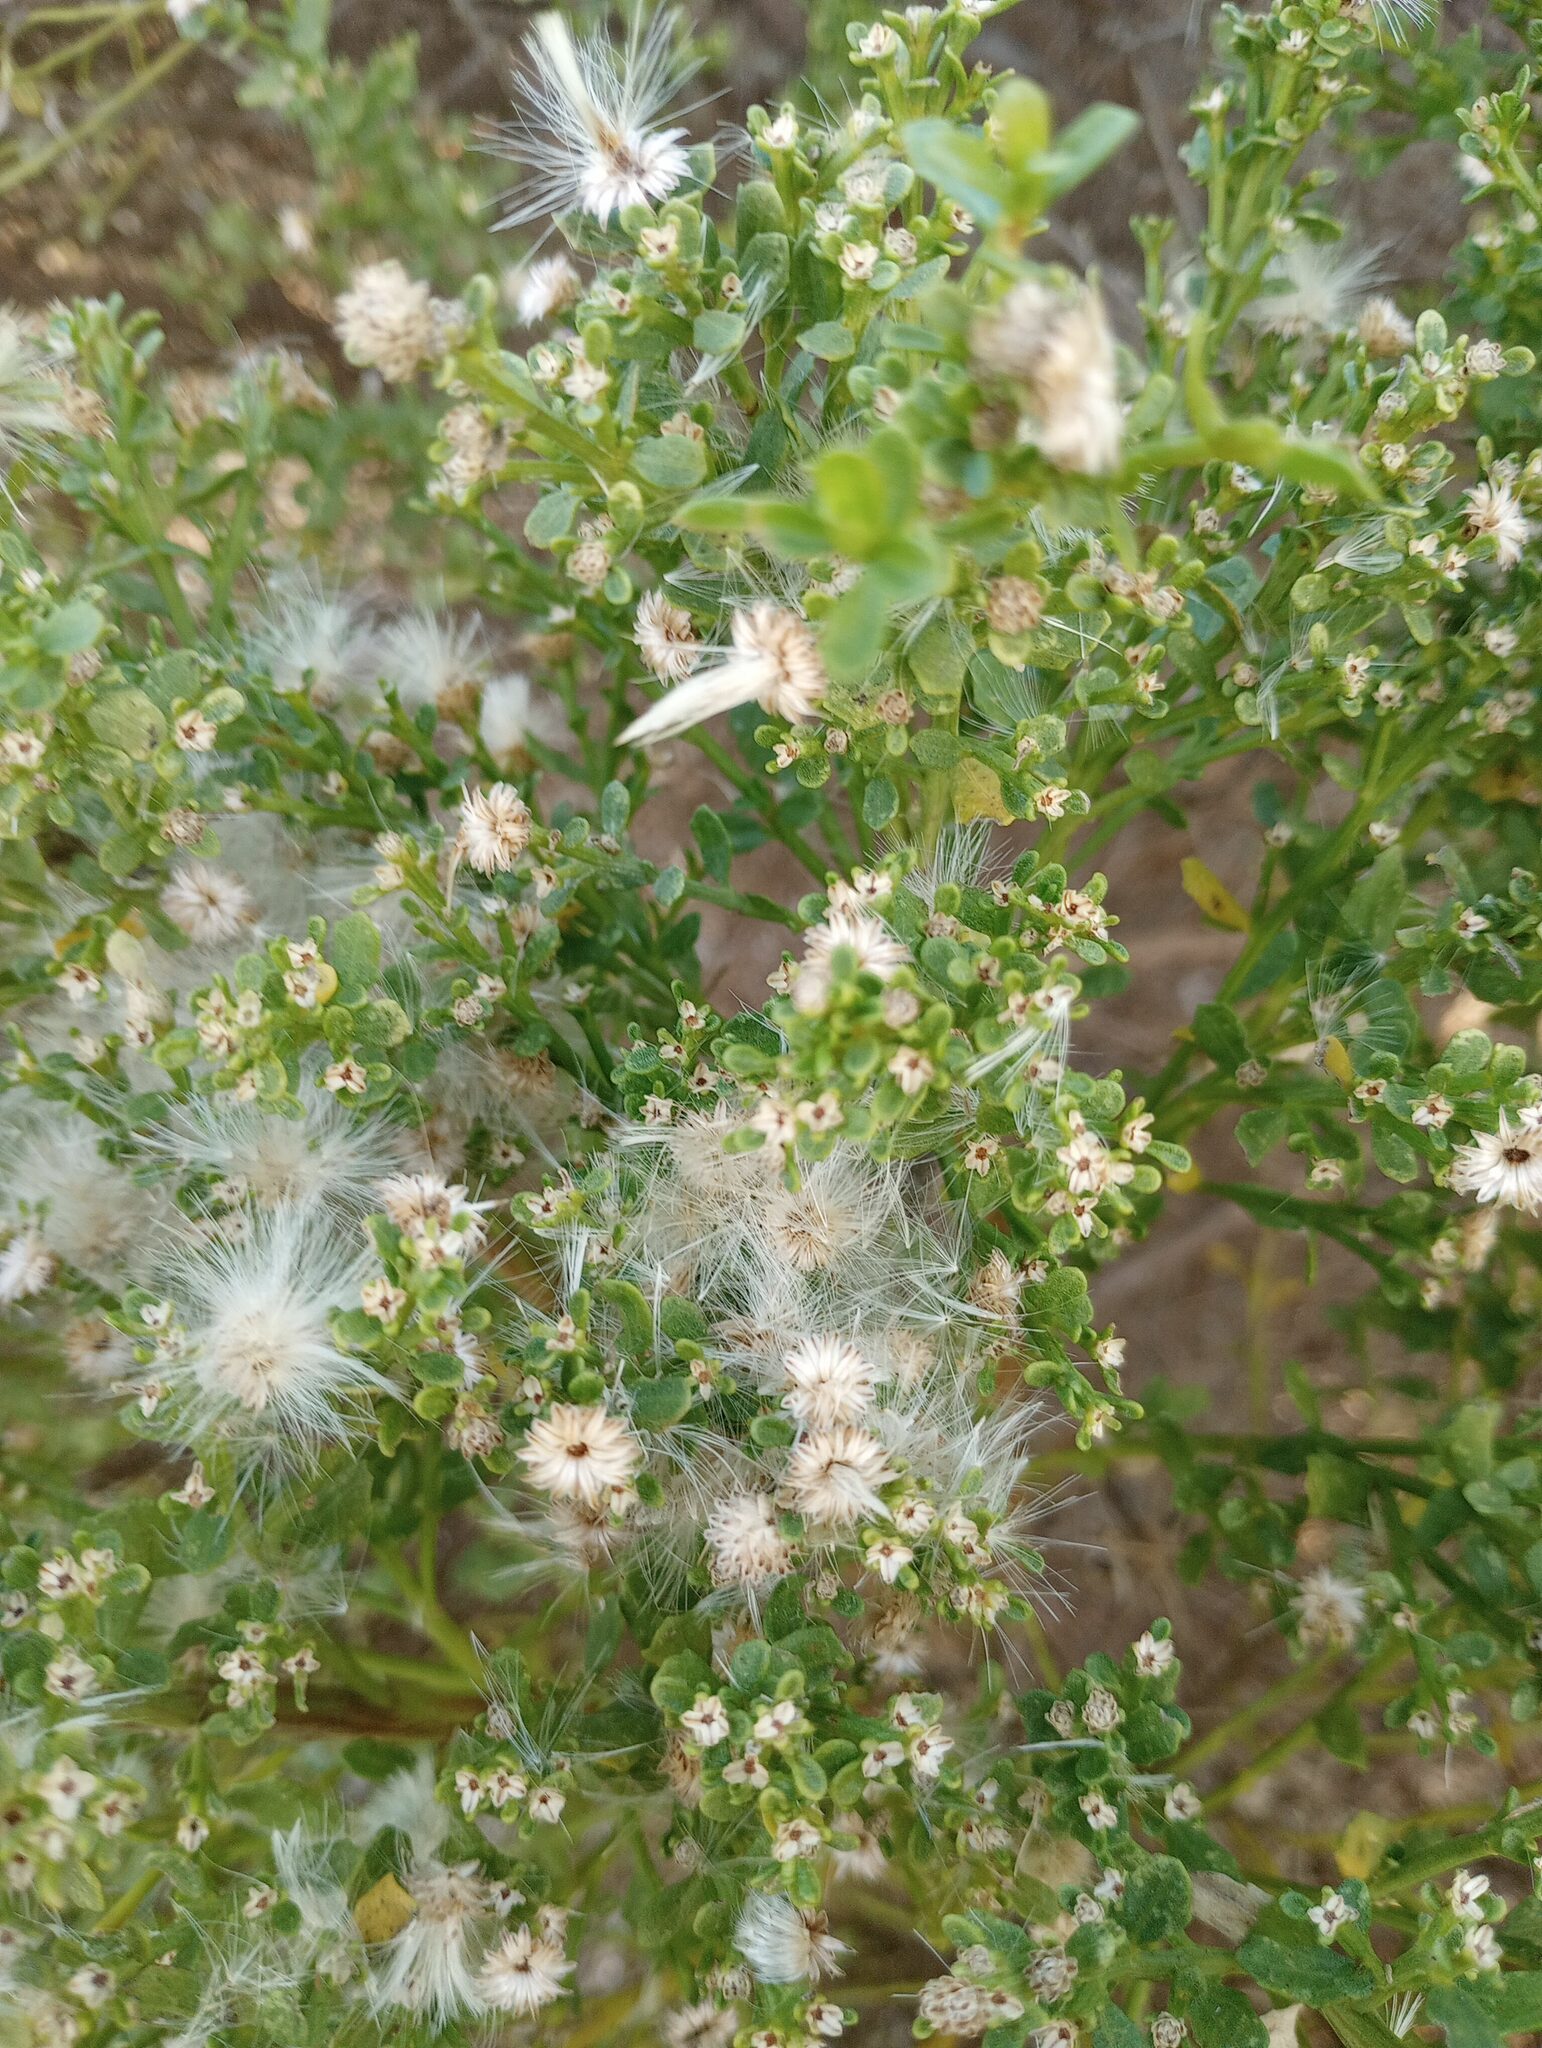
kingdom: Plantae
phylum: Tracheophyta
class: Magnoliopsida
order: Asterales
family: Asteraceae
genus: Baccharis
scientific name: Baccharis pilularis
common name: Coyotebrush
